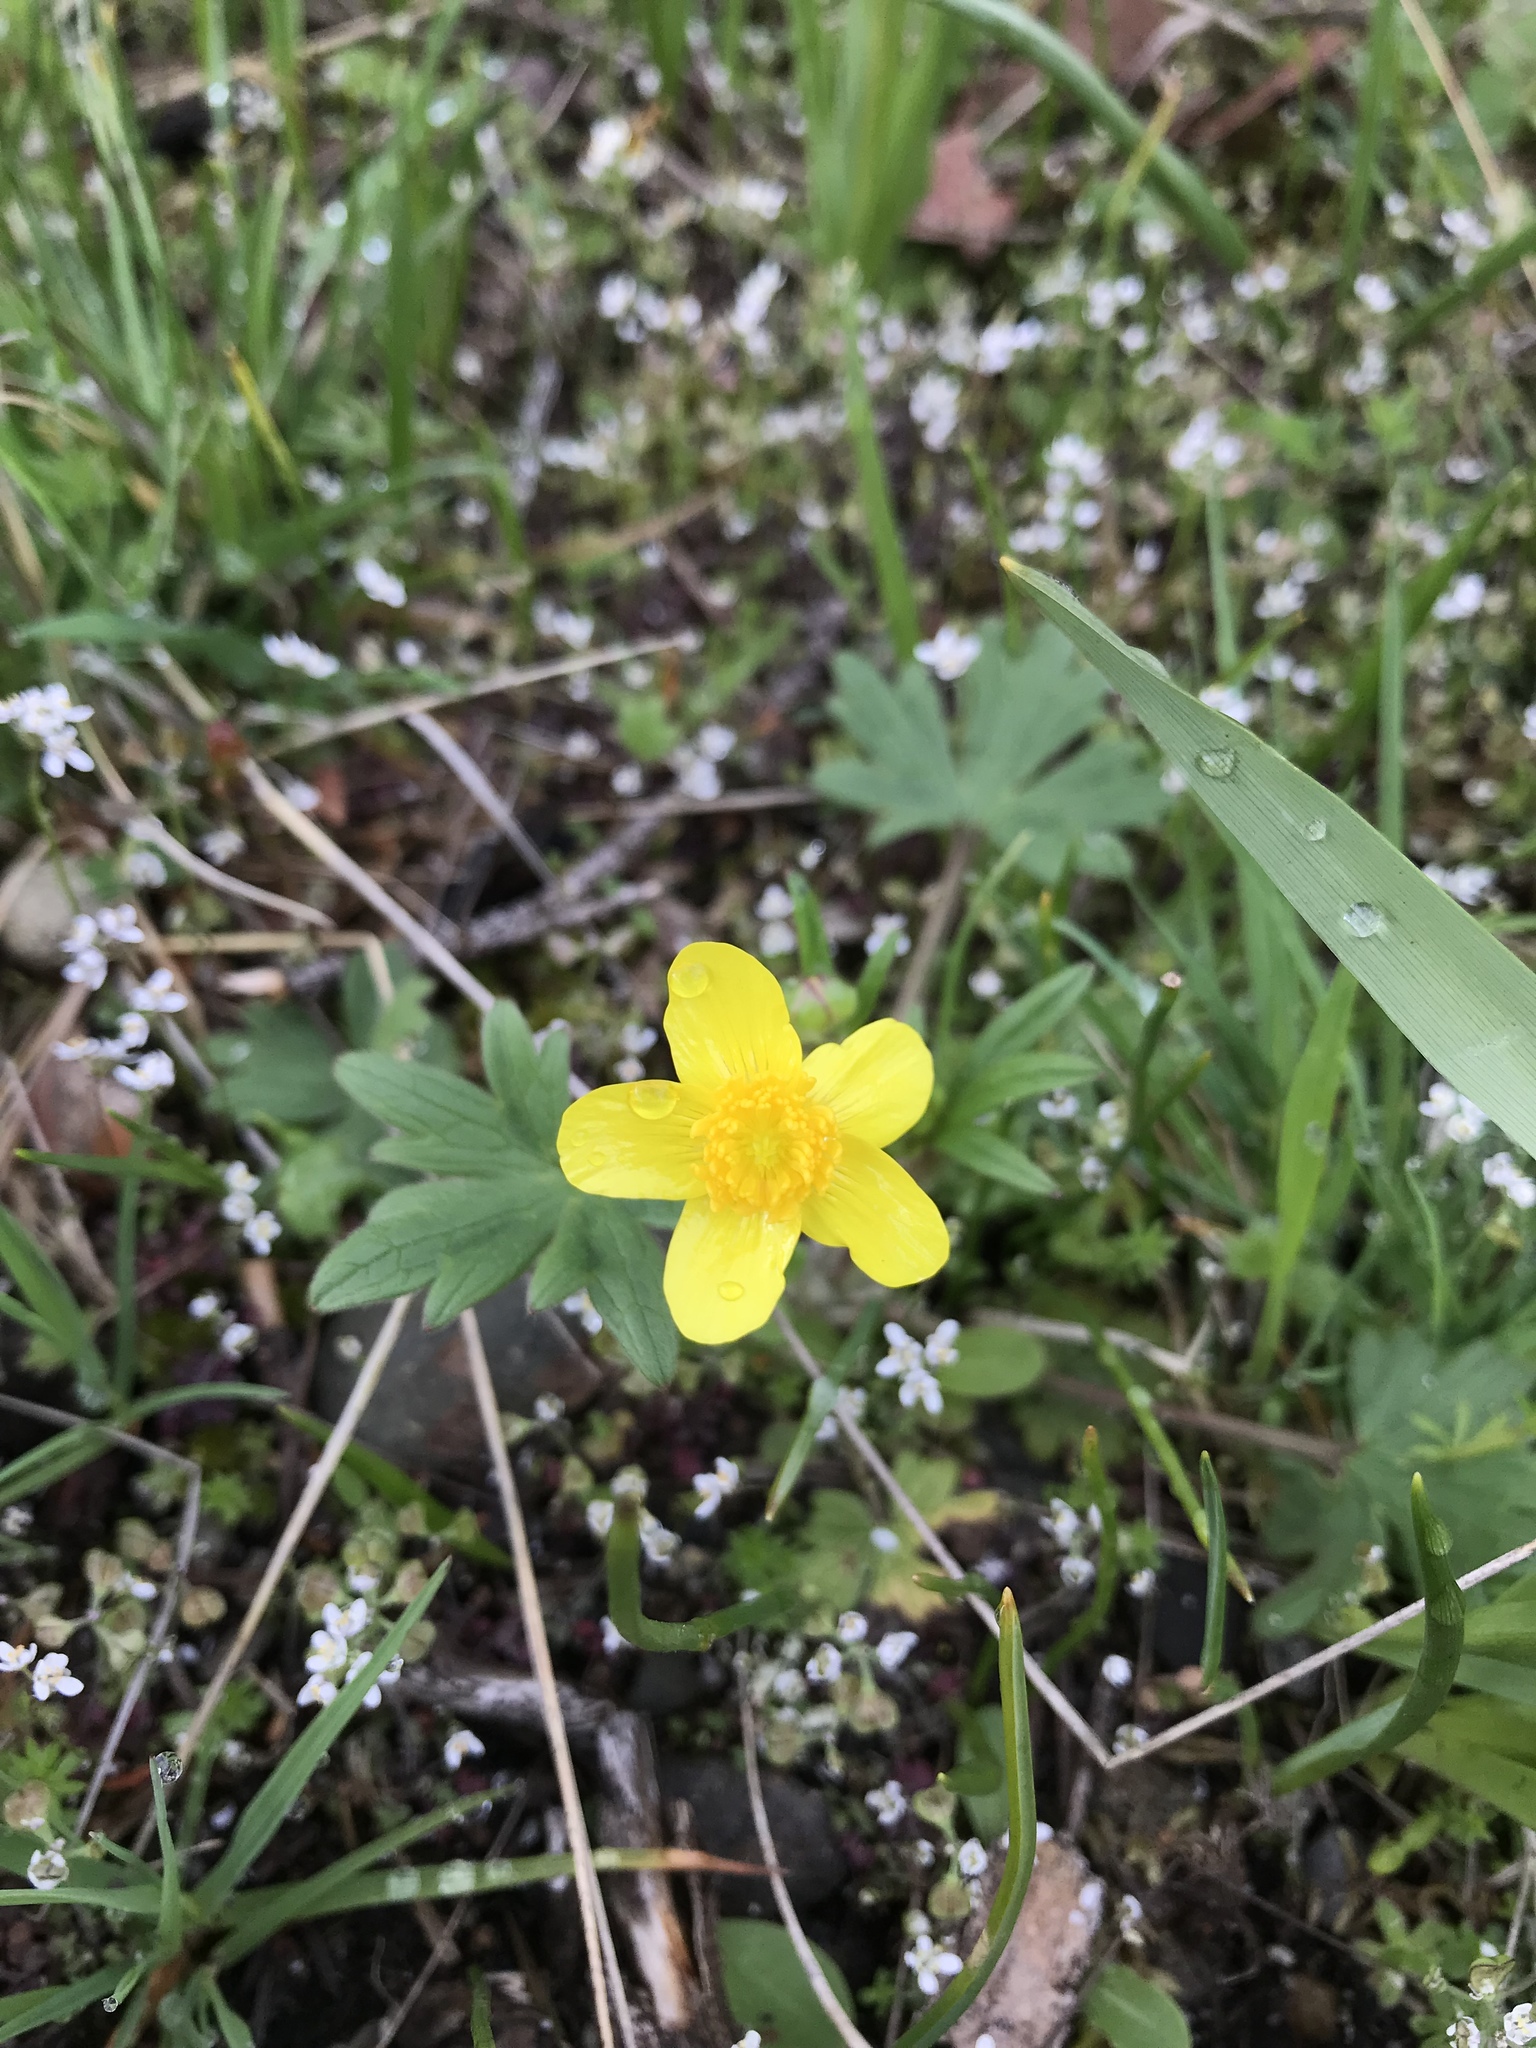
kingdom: Plantae
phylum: Tracheophyta
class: Magnoliopsida
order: Ranunculales
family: Ranunculaceae
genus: Ranunculus
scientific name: Ranunculus occidentalis
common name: Western buttercup
